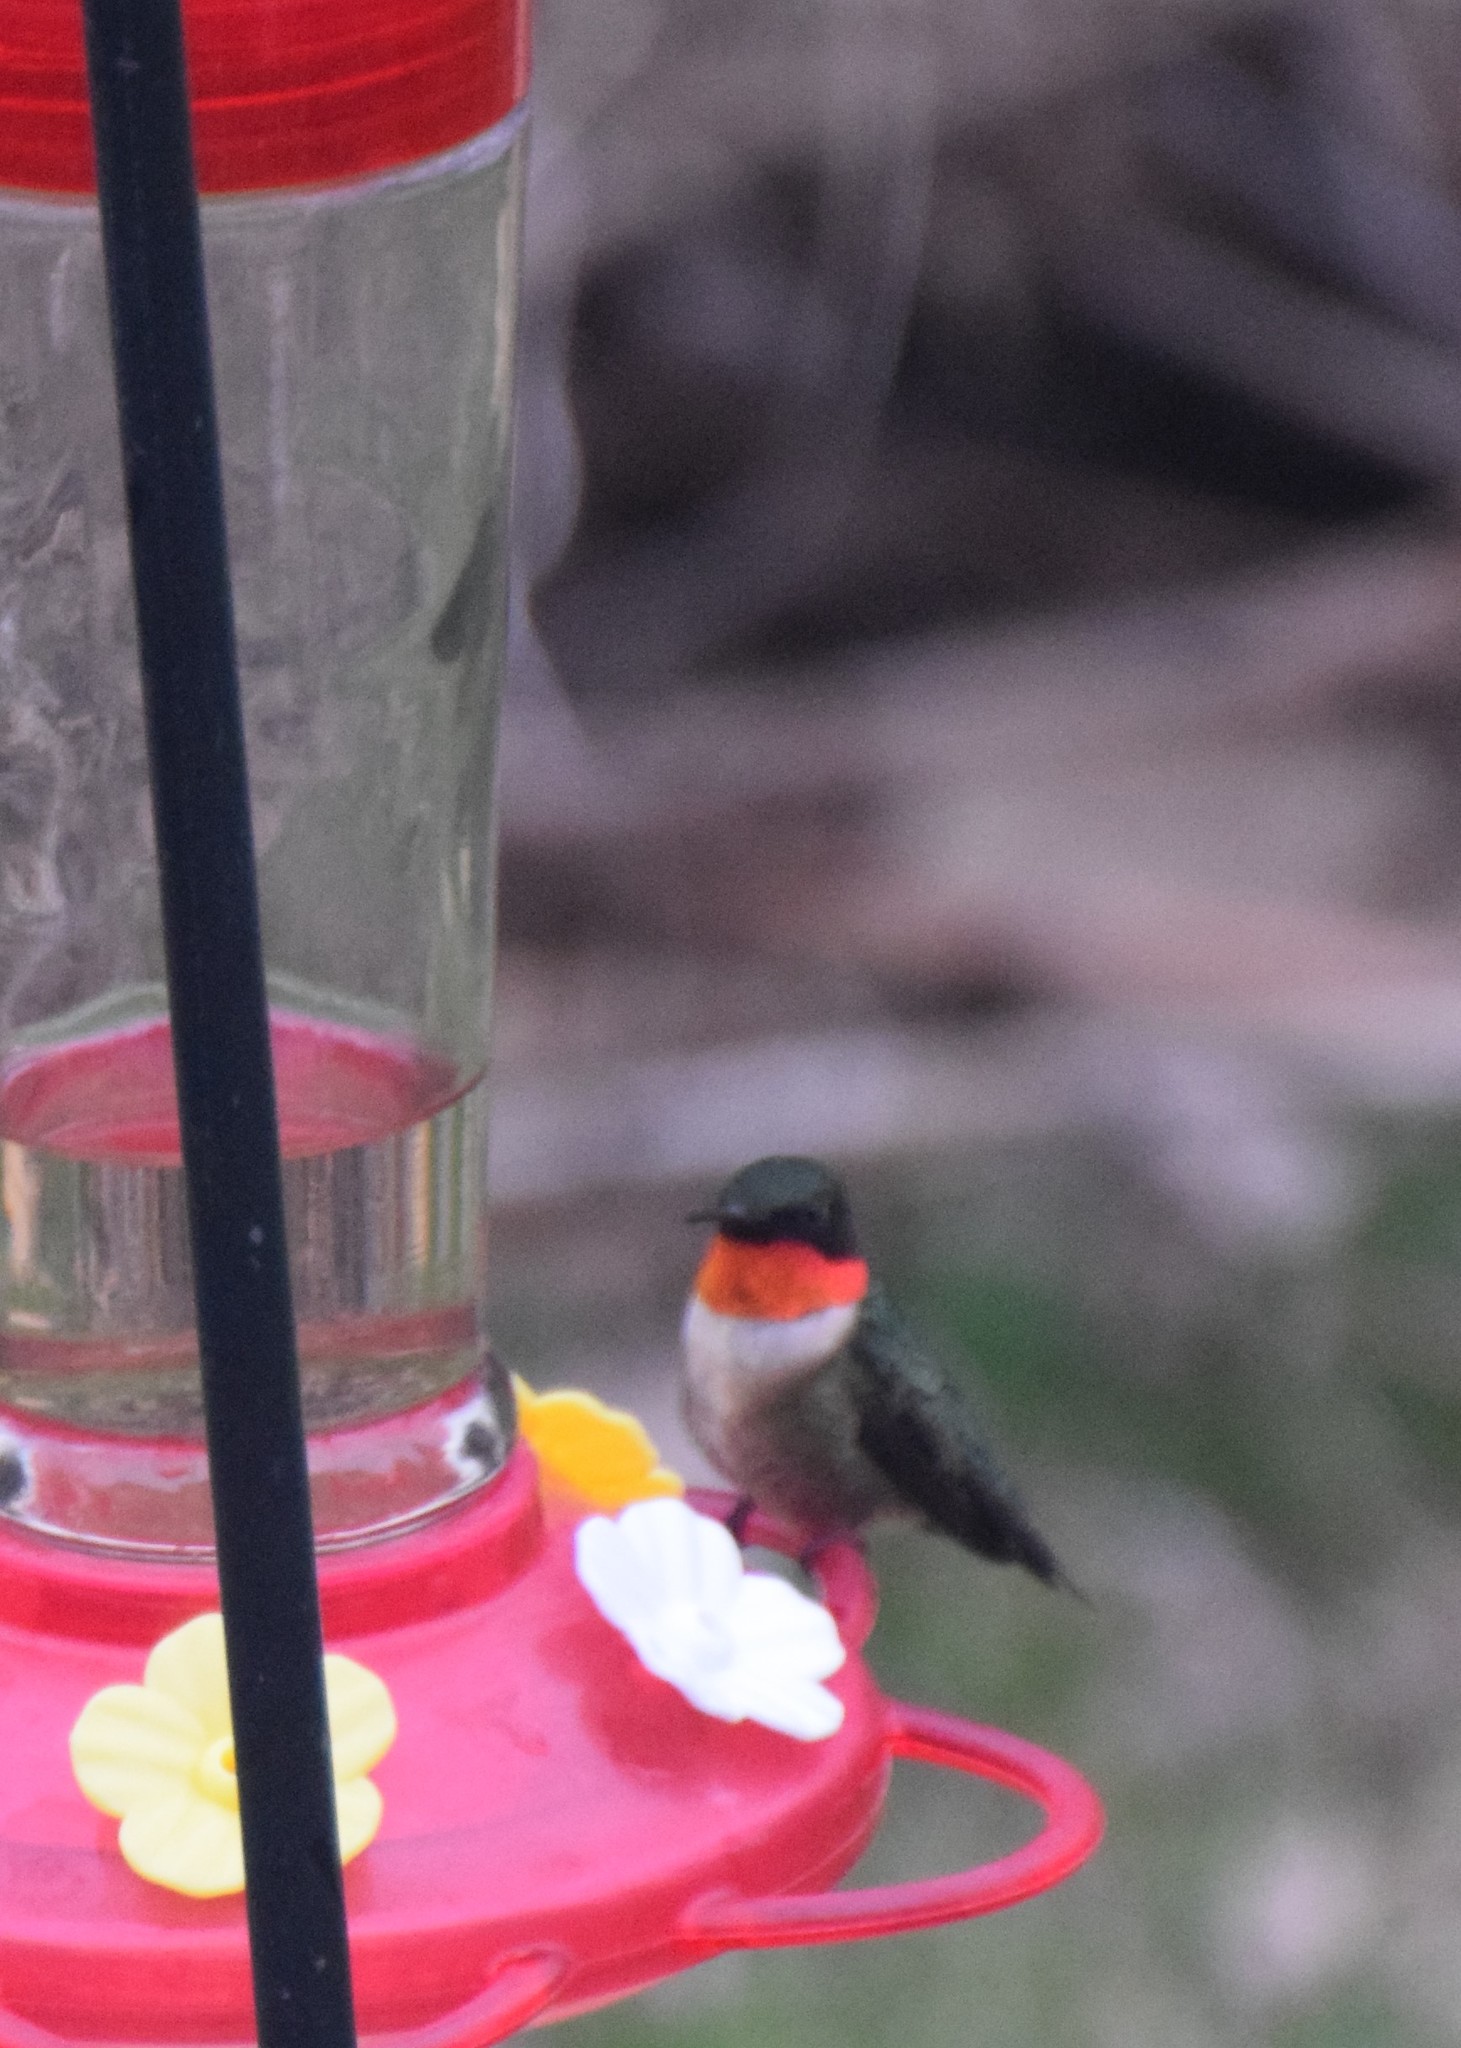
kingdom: Animalia
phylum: Chordata
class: Aves
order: Apodiformes
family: Trochilidae
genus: Archilochus
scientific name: Archilochus colubris
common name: Ruby-throated hummingbird
